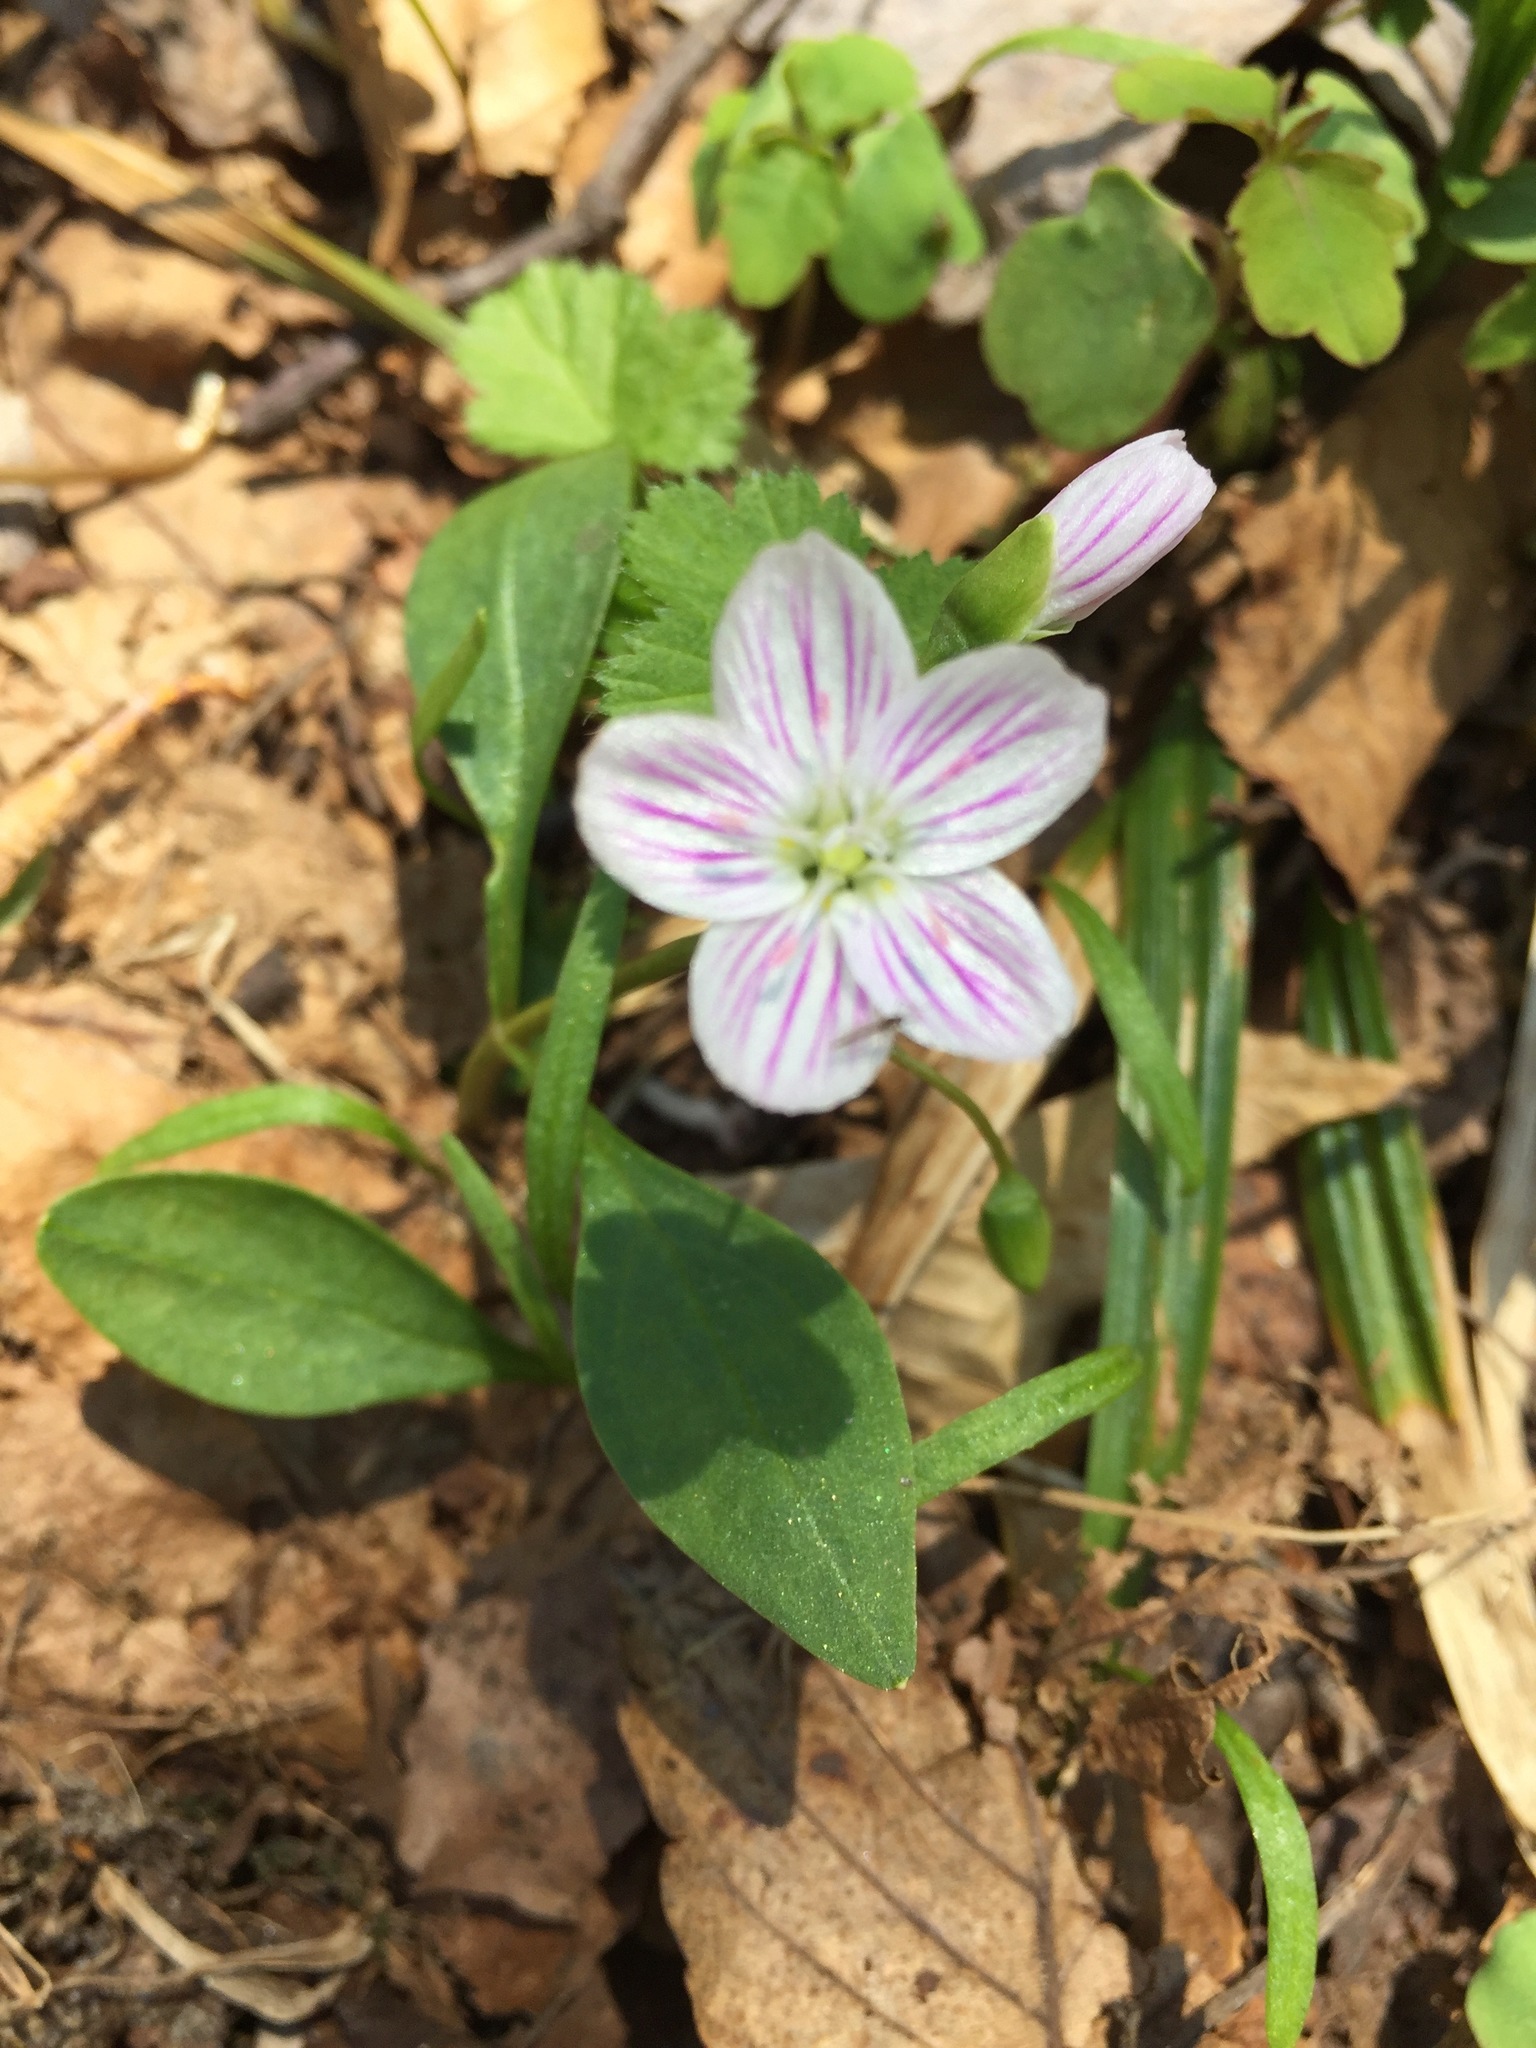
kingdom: Plantae
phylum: Tracheophyta
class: Magnoliopsida
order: Caryophyllales
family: Montiaceae
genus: Claytonia
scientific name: Claytonia caroliniana
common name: Carolina spring beauty
